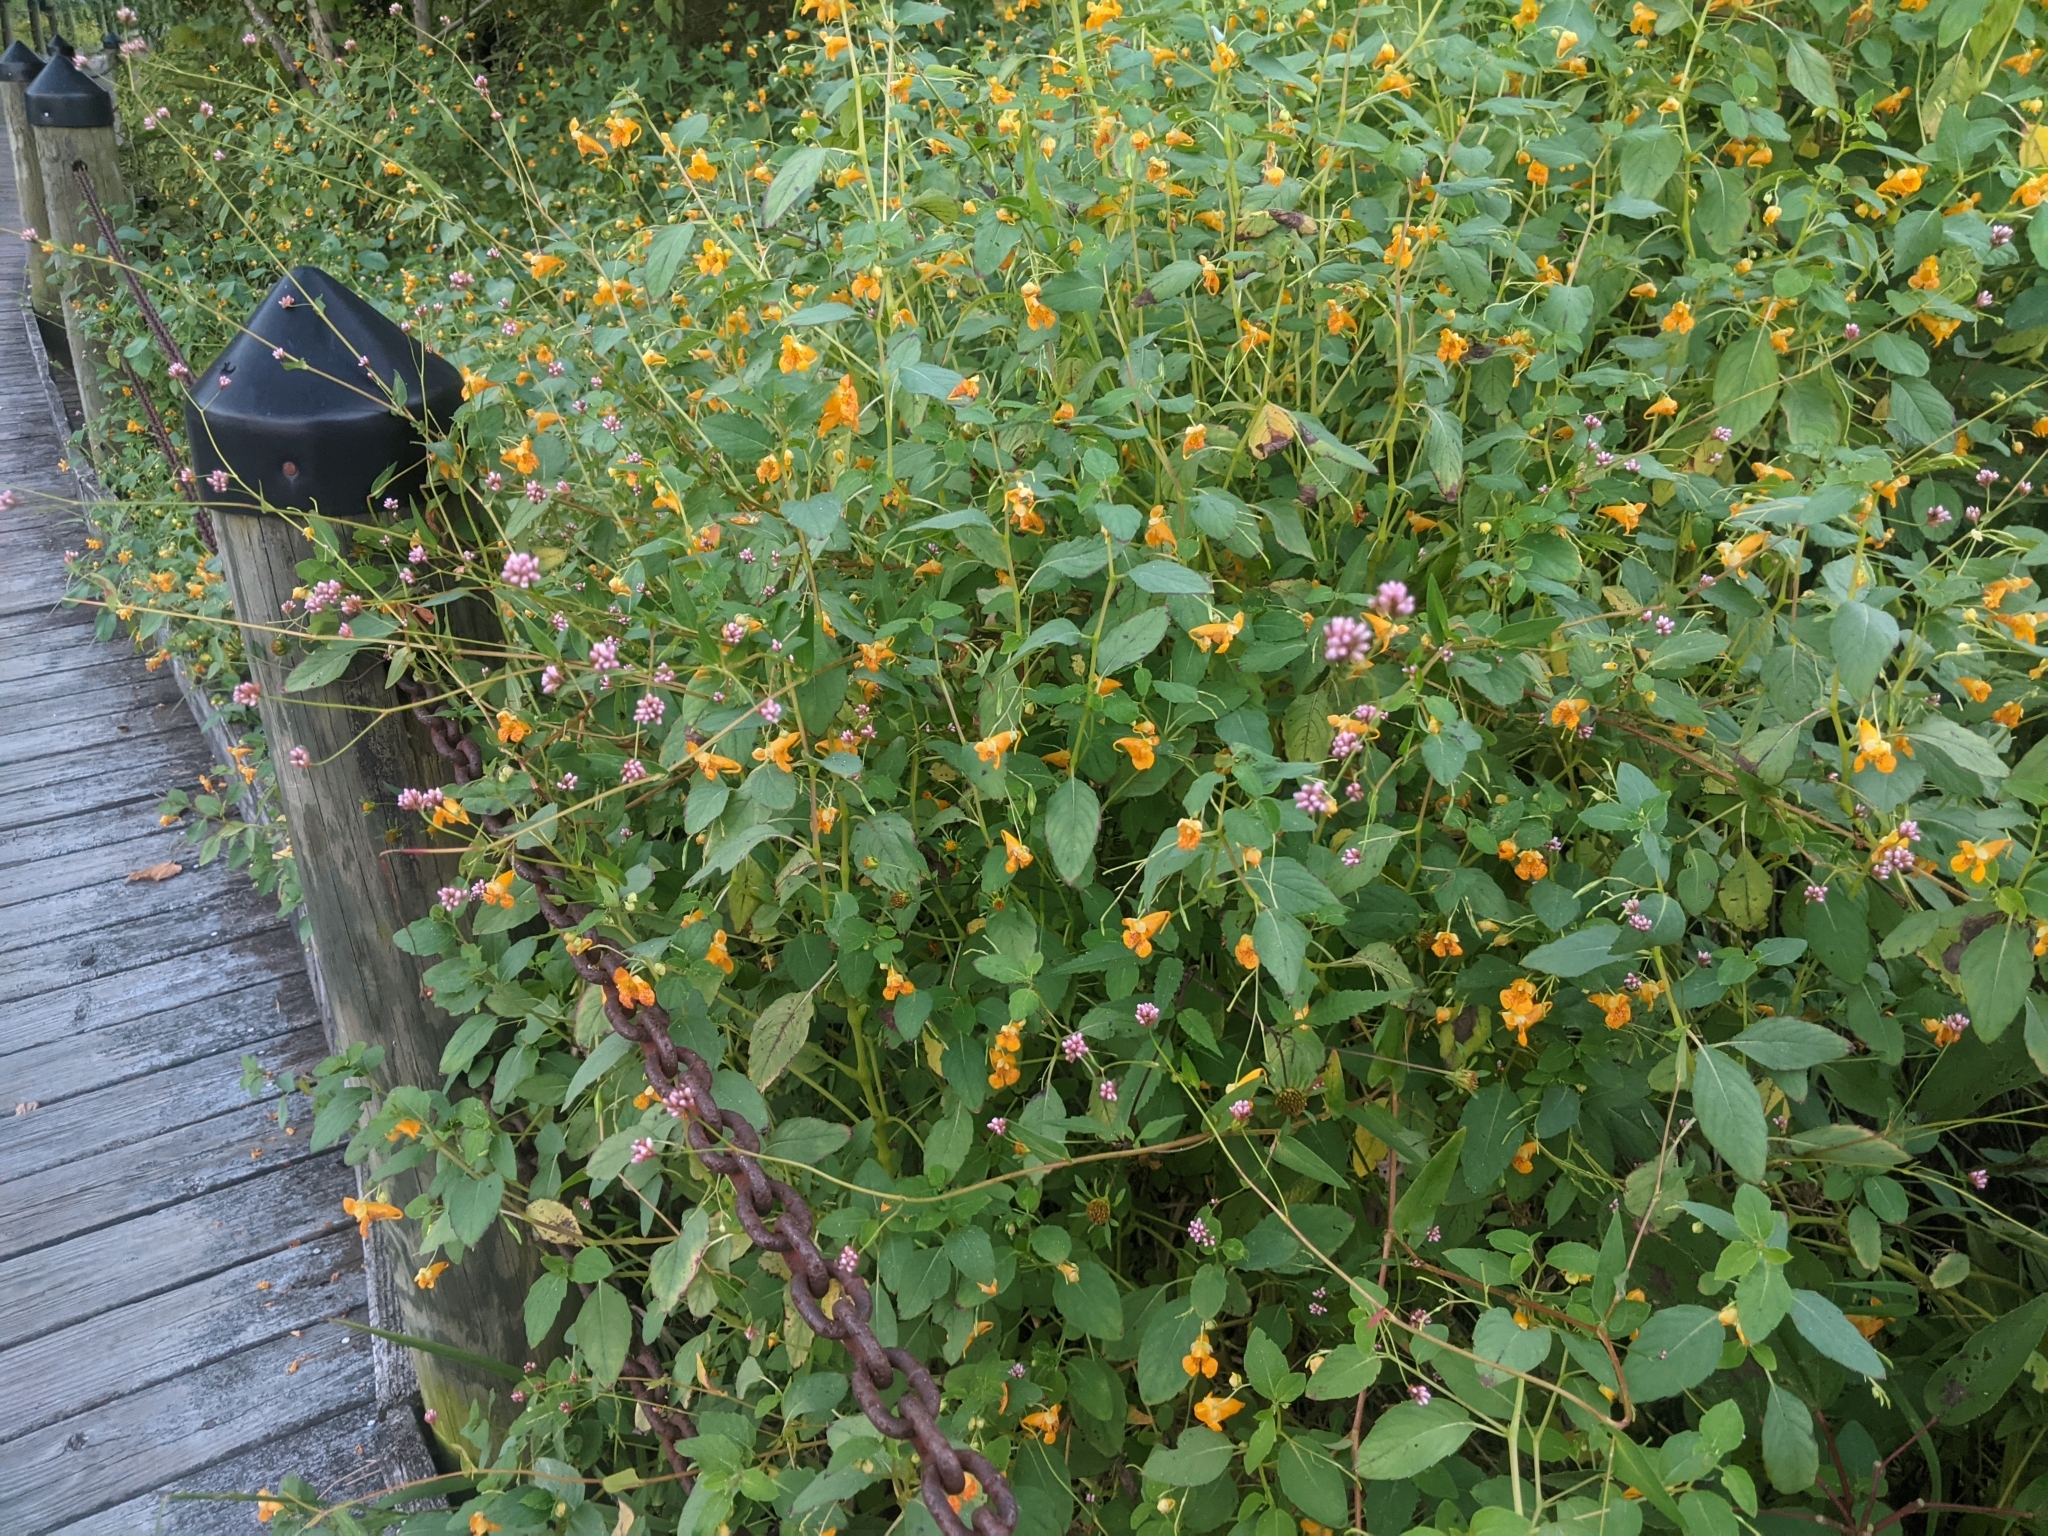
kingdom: Plantae
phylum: Tracheophyta
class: Magnoliopsida
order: Ericales
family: Balsaminaceae
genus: Impatiens
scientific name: Impatiens capensis
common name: Orange balsam
